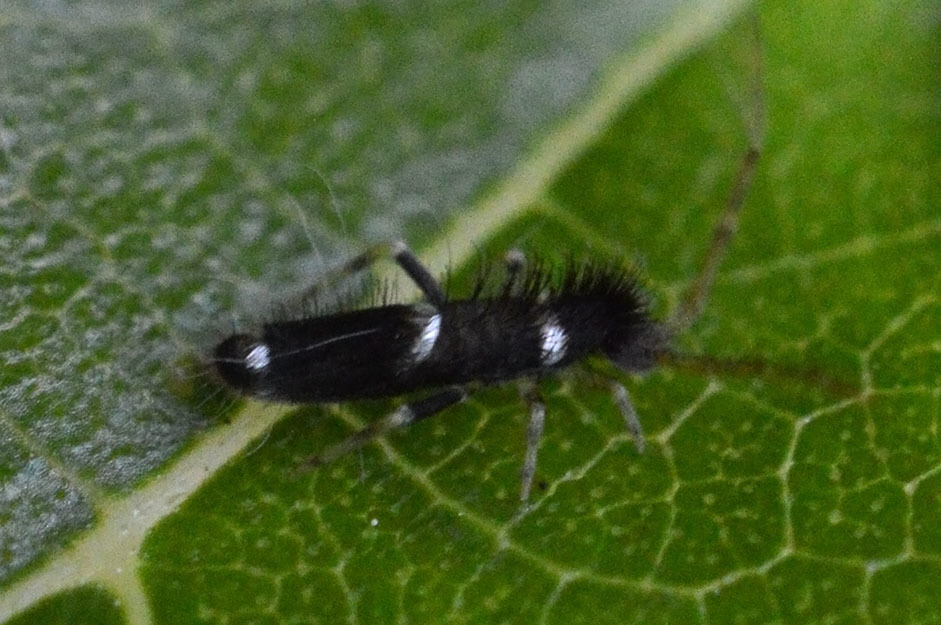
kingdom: Animalia
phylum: Arthropoda
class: Collembola
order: Entomobryomorpha
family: Entomobryidae
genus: Entomobrya
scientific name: Entomobrya dorsalis
